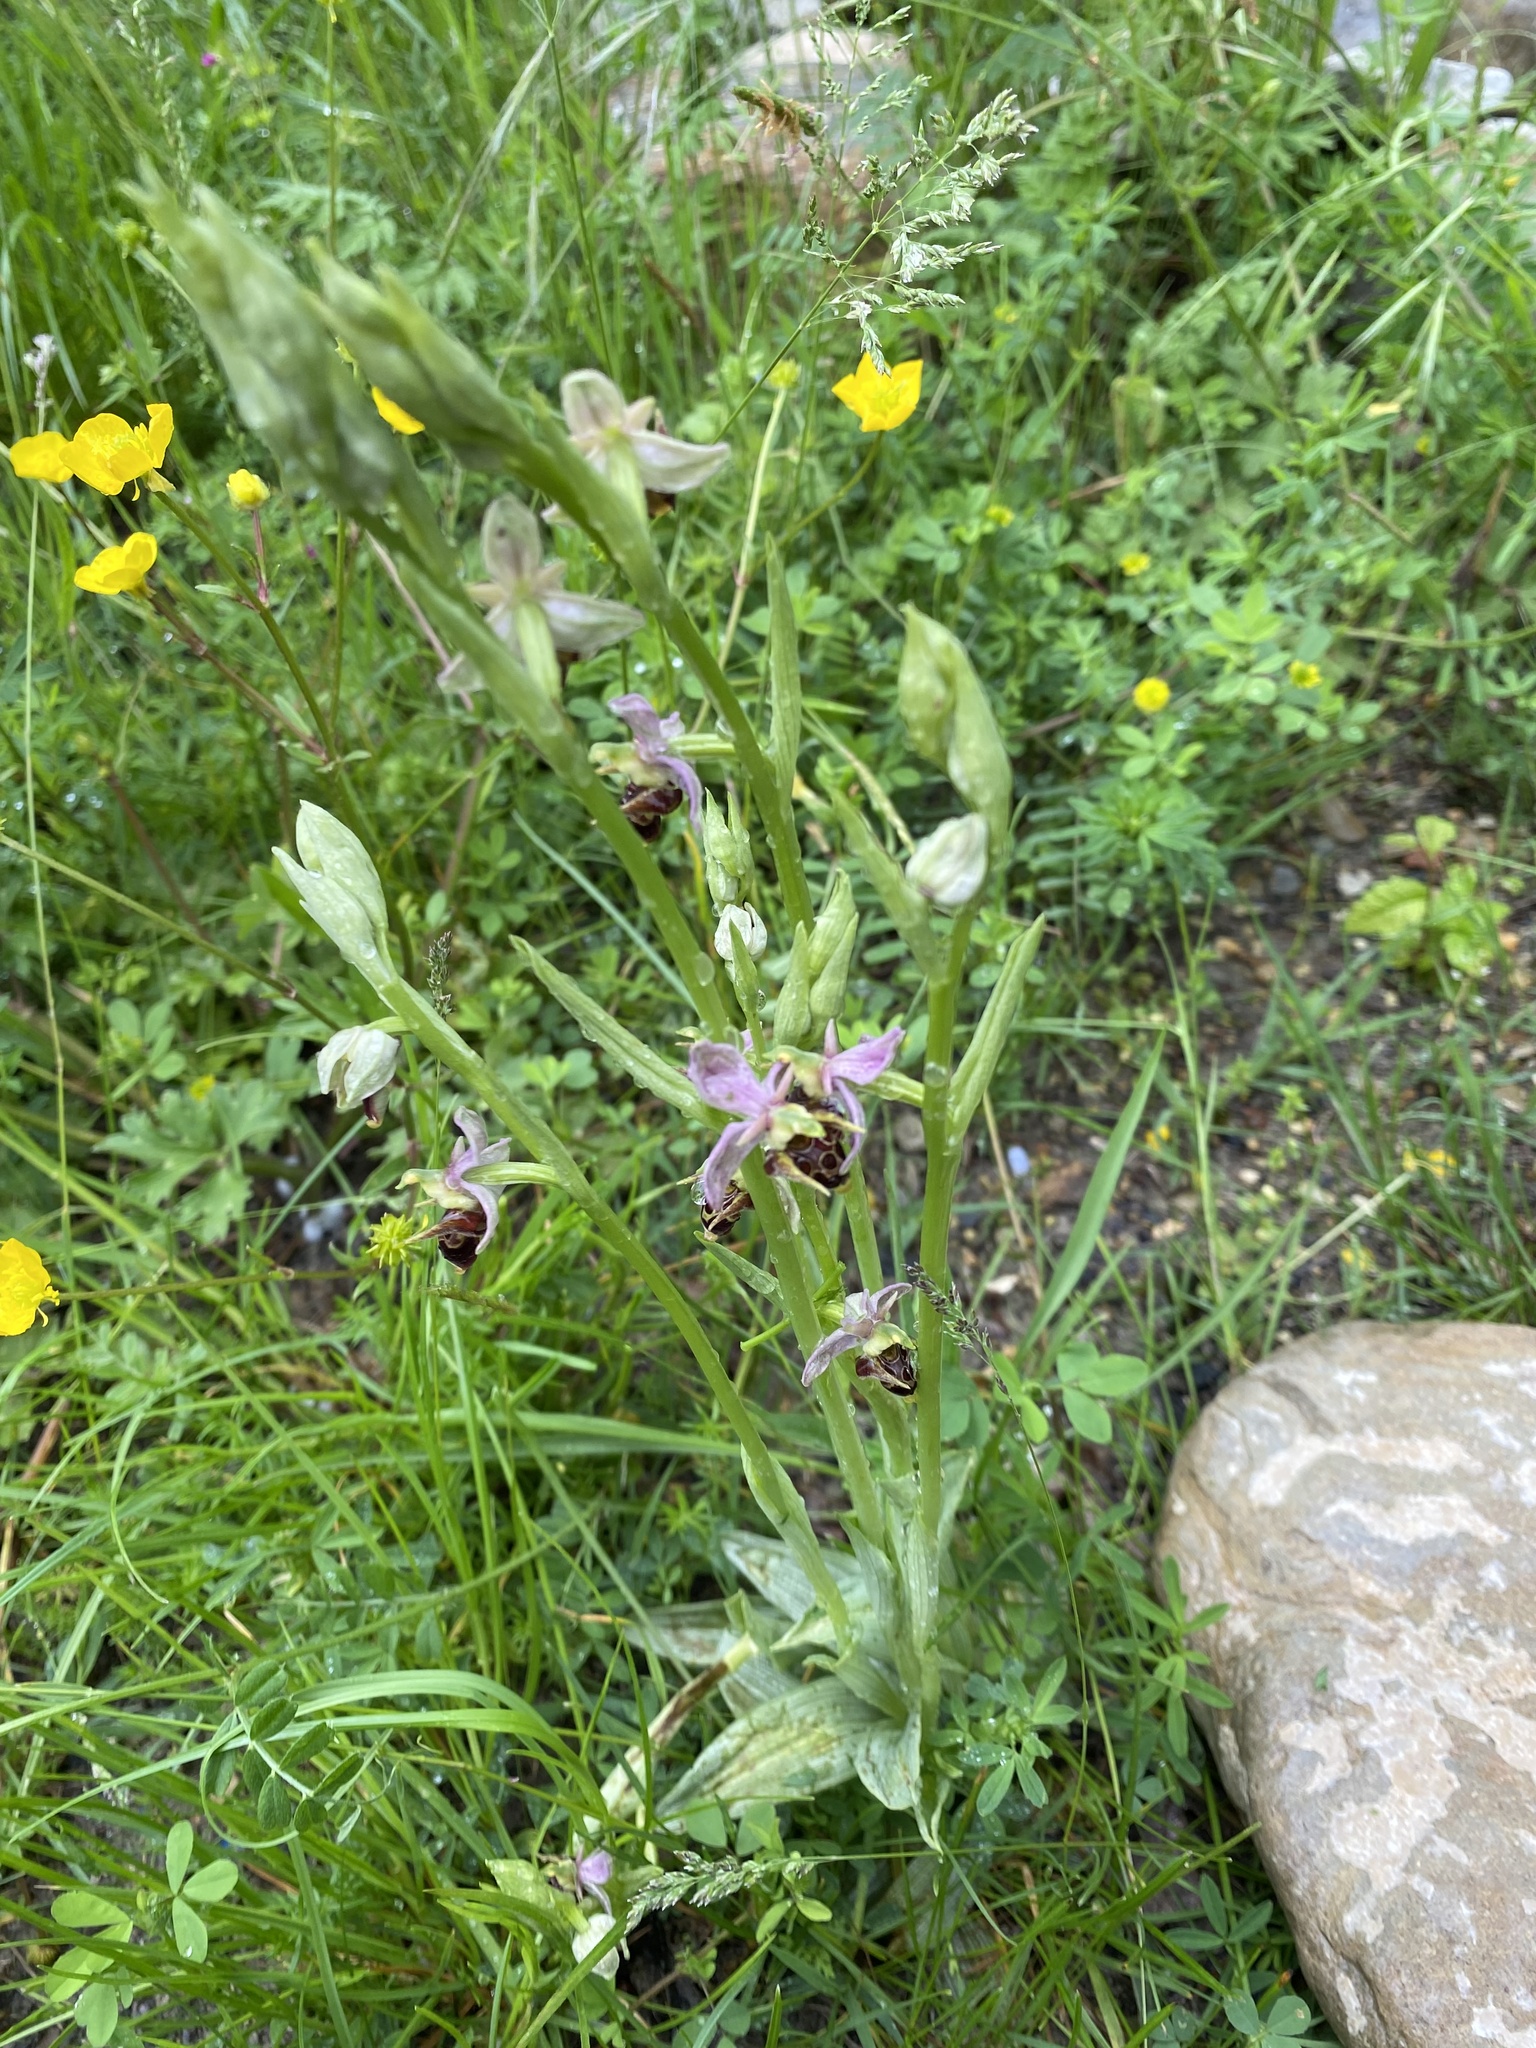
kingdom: Plantae
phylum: Tracheophyta
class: Liliopsida
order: Asparagales
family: Orchidaceae
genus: Ophrys
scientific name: Ophrys
